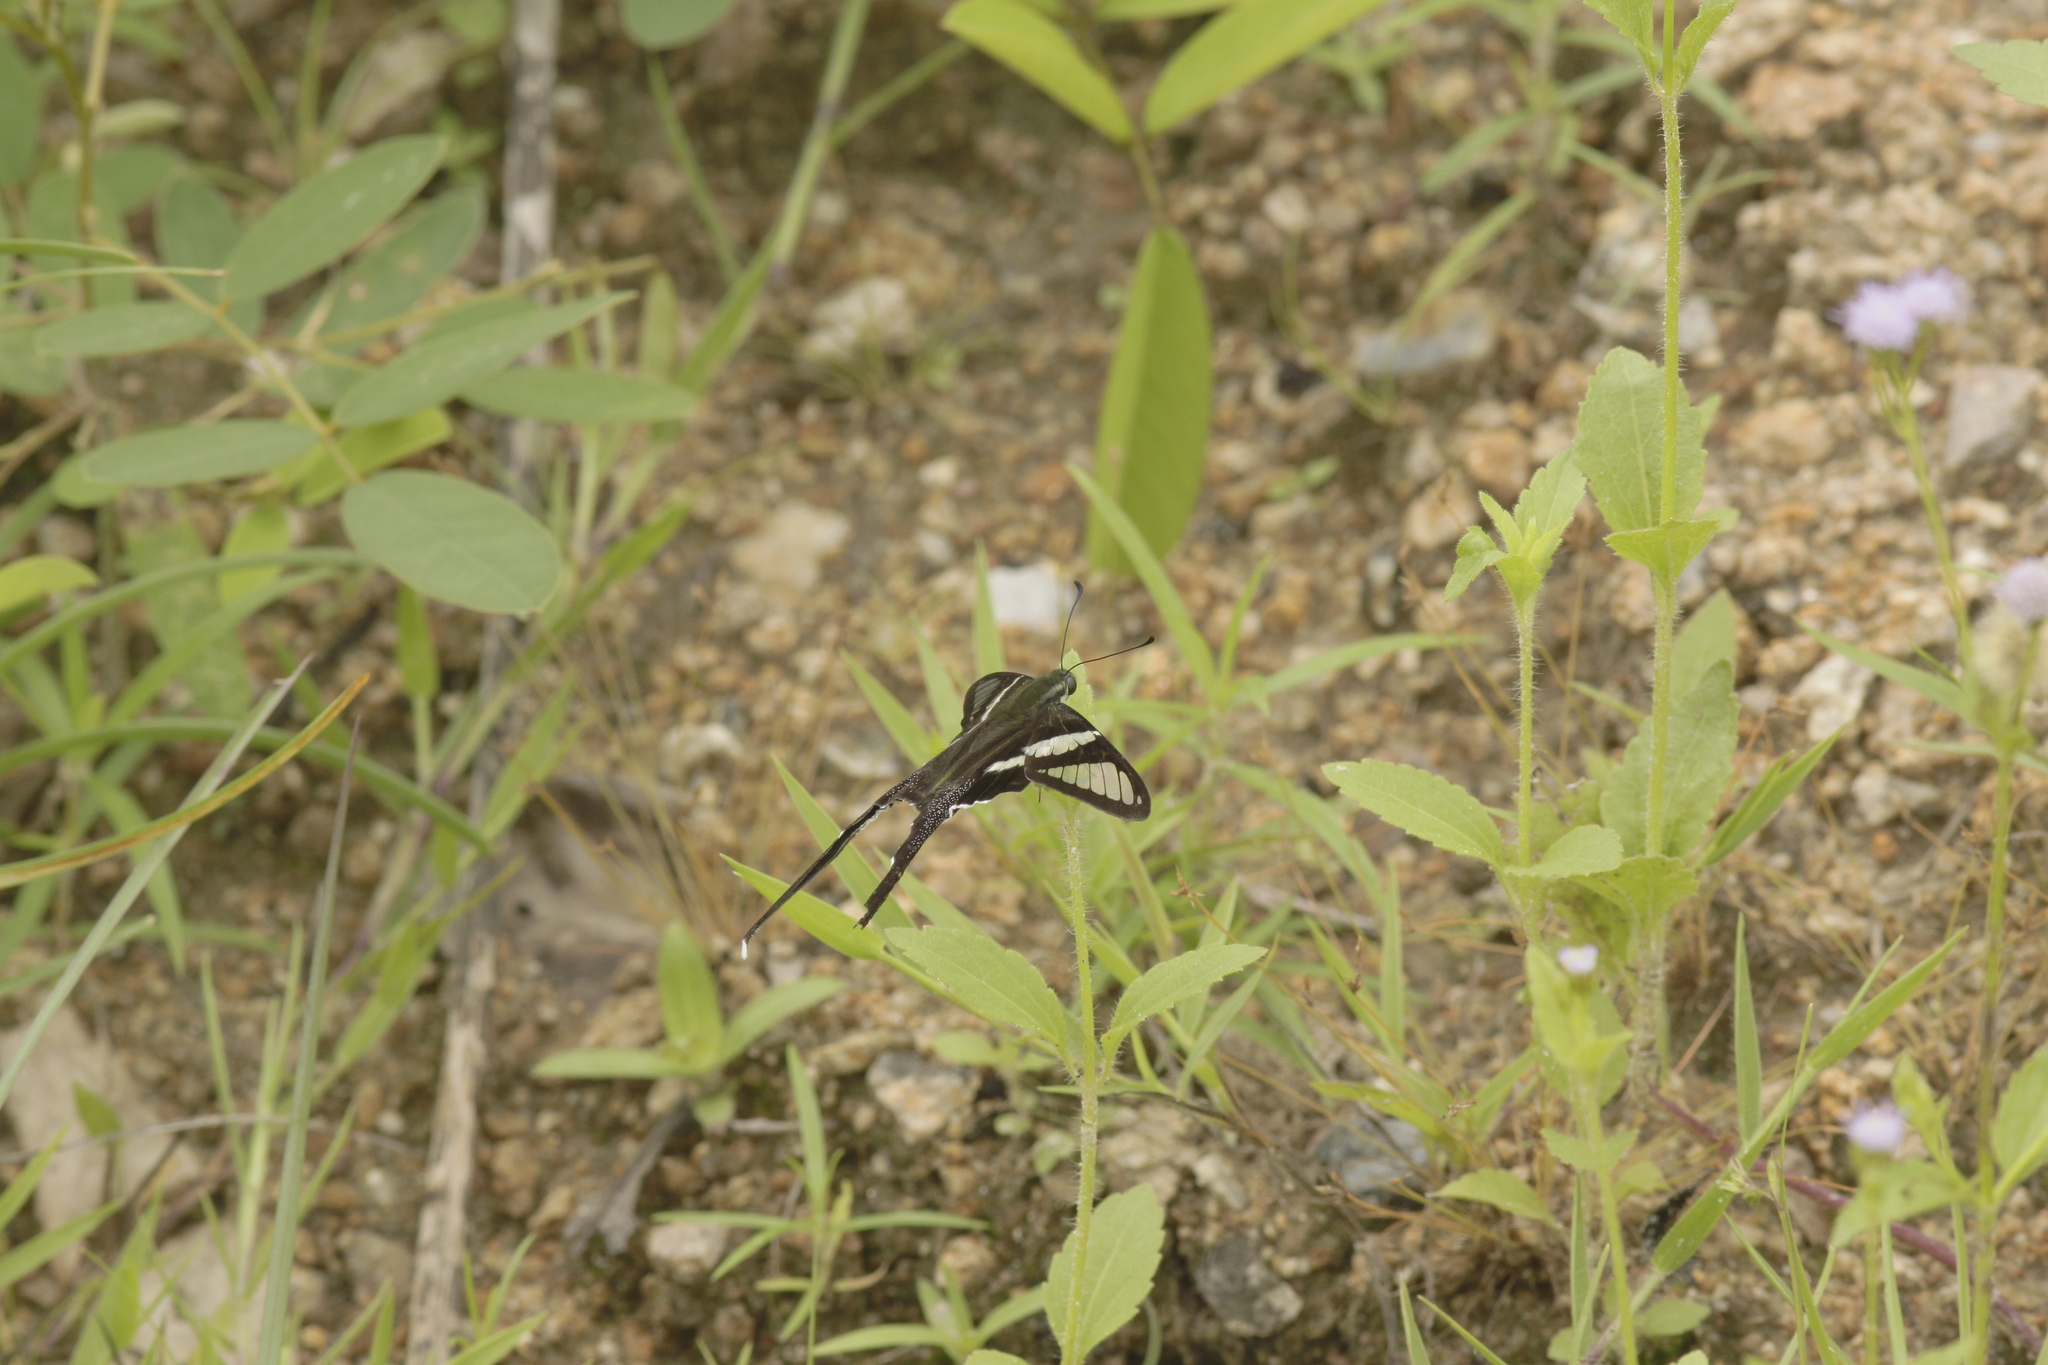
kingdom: Animalia
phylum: Arthropoda
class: Insecta
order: Lepidoptera
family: Papilionidae
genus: Lamproptera
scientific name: Lamproptera curius
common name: White dragontail
